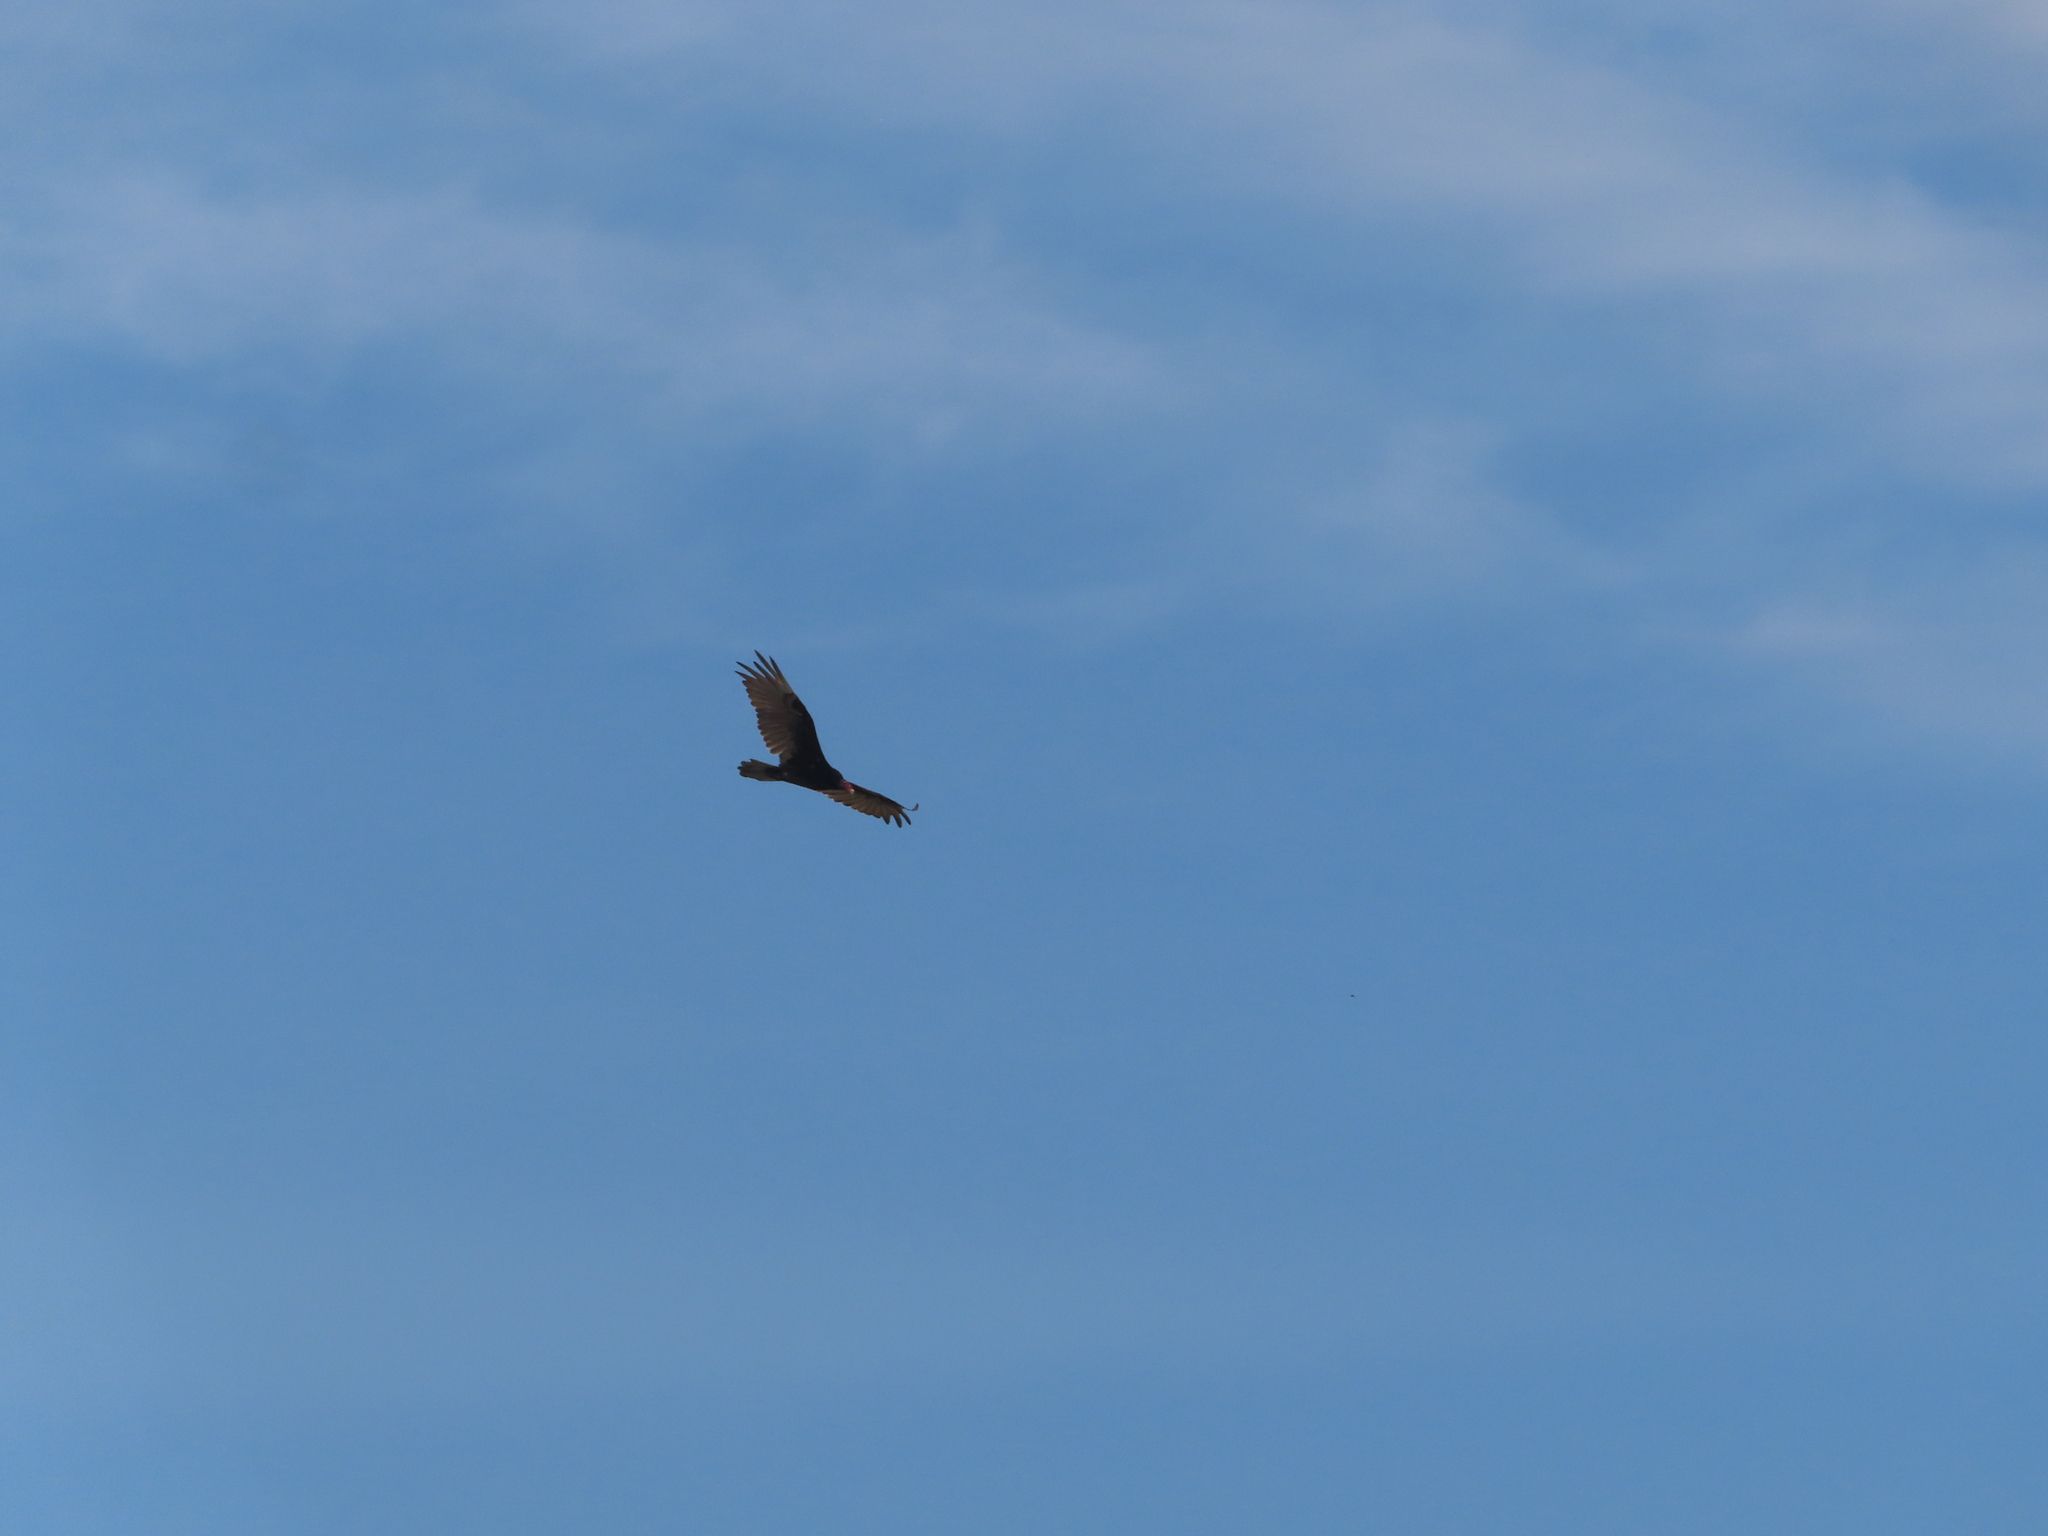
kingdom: Animalia
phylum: Chordata
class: Aves
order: Accipitriformes
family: Cathartidae
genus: Cathartes
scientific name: Cathartes aura
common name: Turkey vulture
